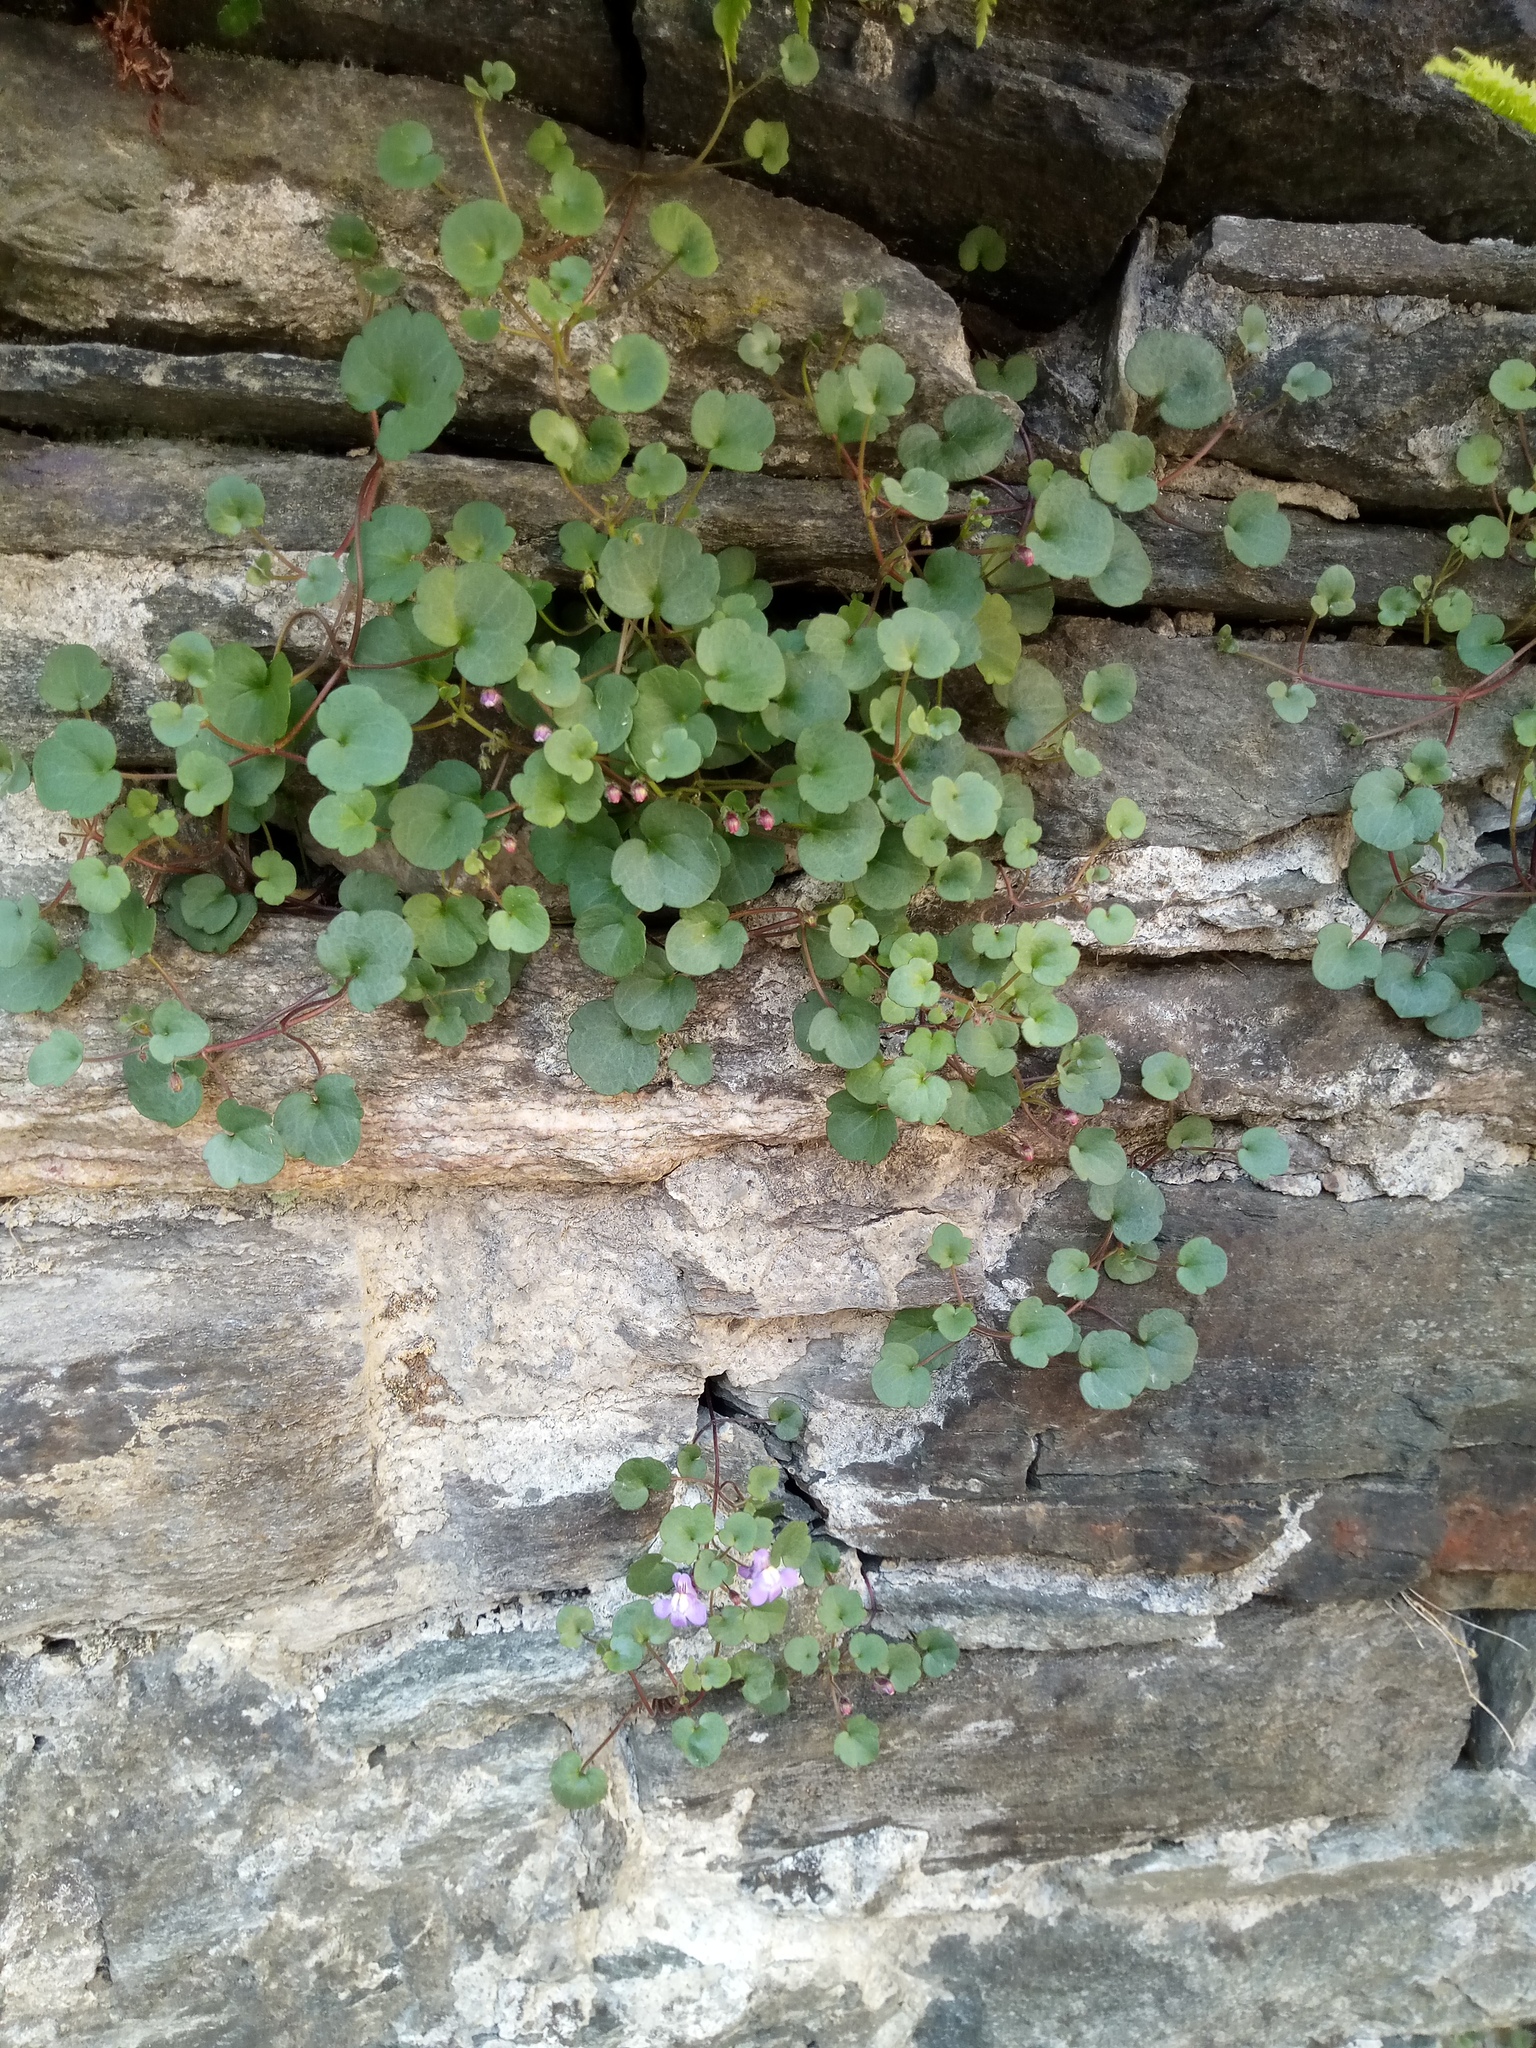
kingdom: Plantae
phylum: Tracheophyta
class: Magnoliopsida
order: Lamiales
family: Plantaginaceae
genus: Cymbalaria
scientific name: Cymbalaria muralis
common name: Ivy-leaved toadflax
